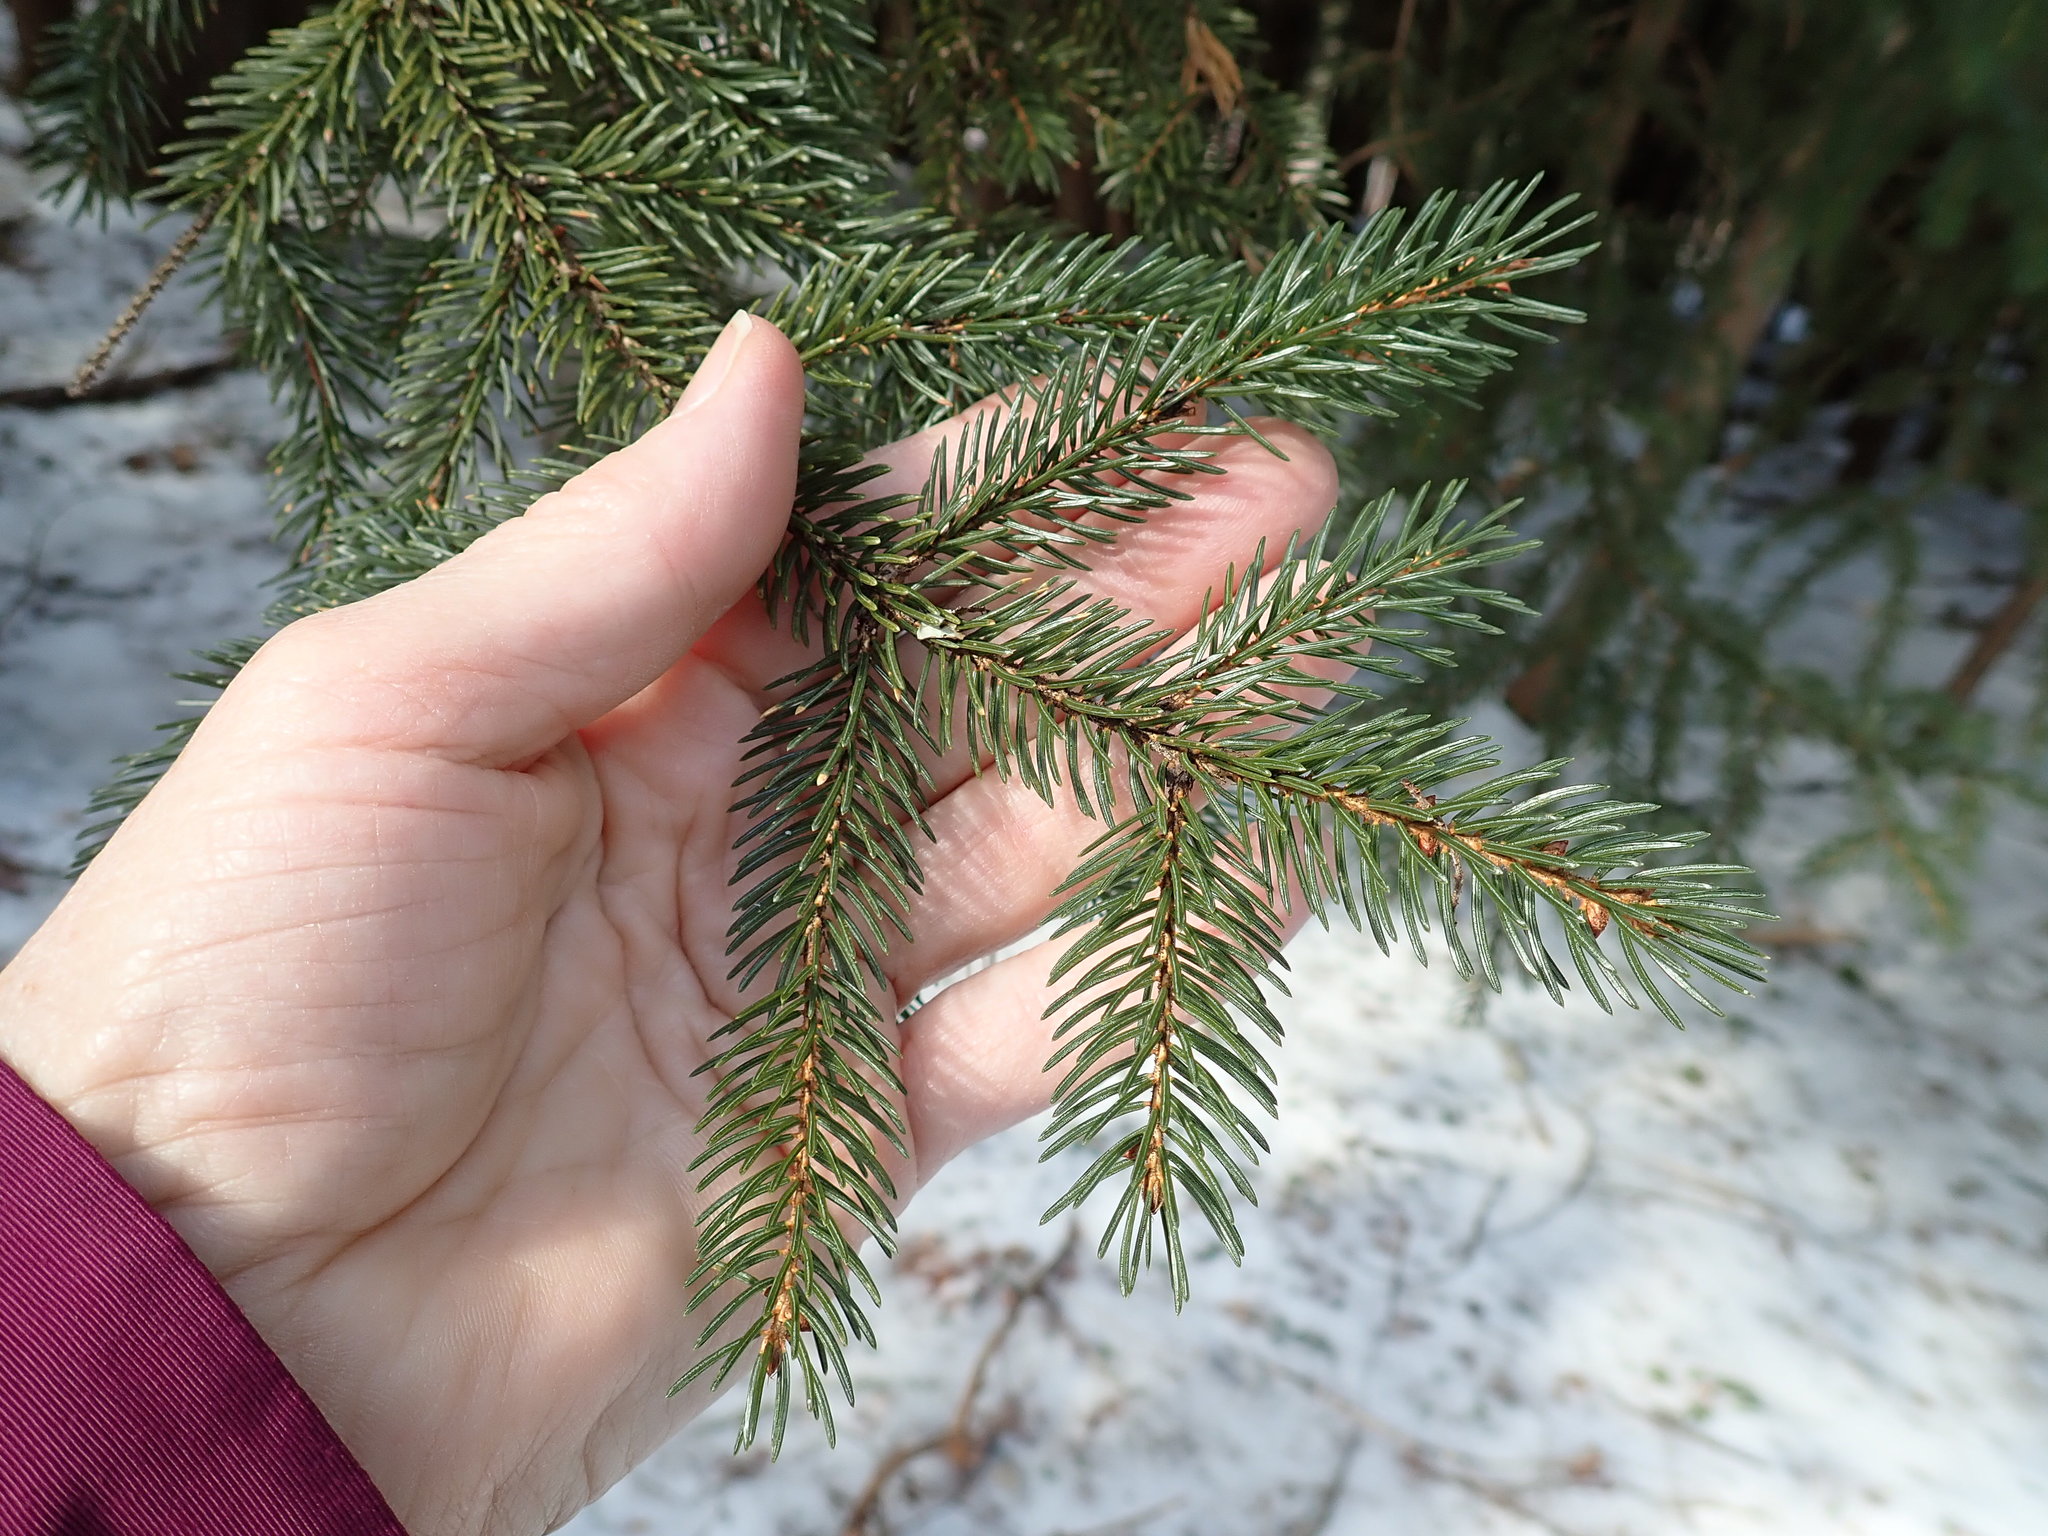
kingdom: Plantae
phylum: Tracheophyta
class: Pinopsida
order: Pinales
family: Pinaceae
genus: Picea
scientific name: Picea rubens
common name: Red spruce
